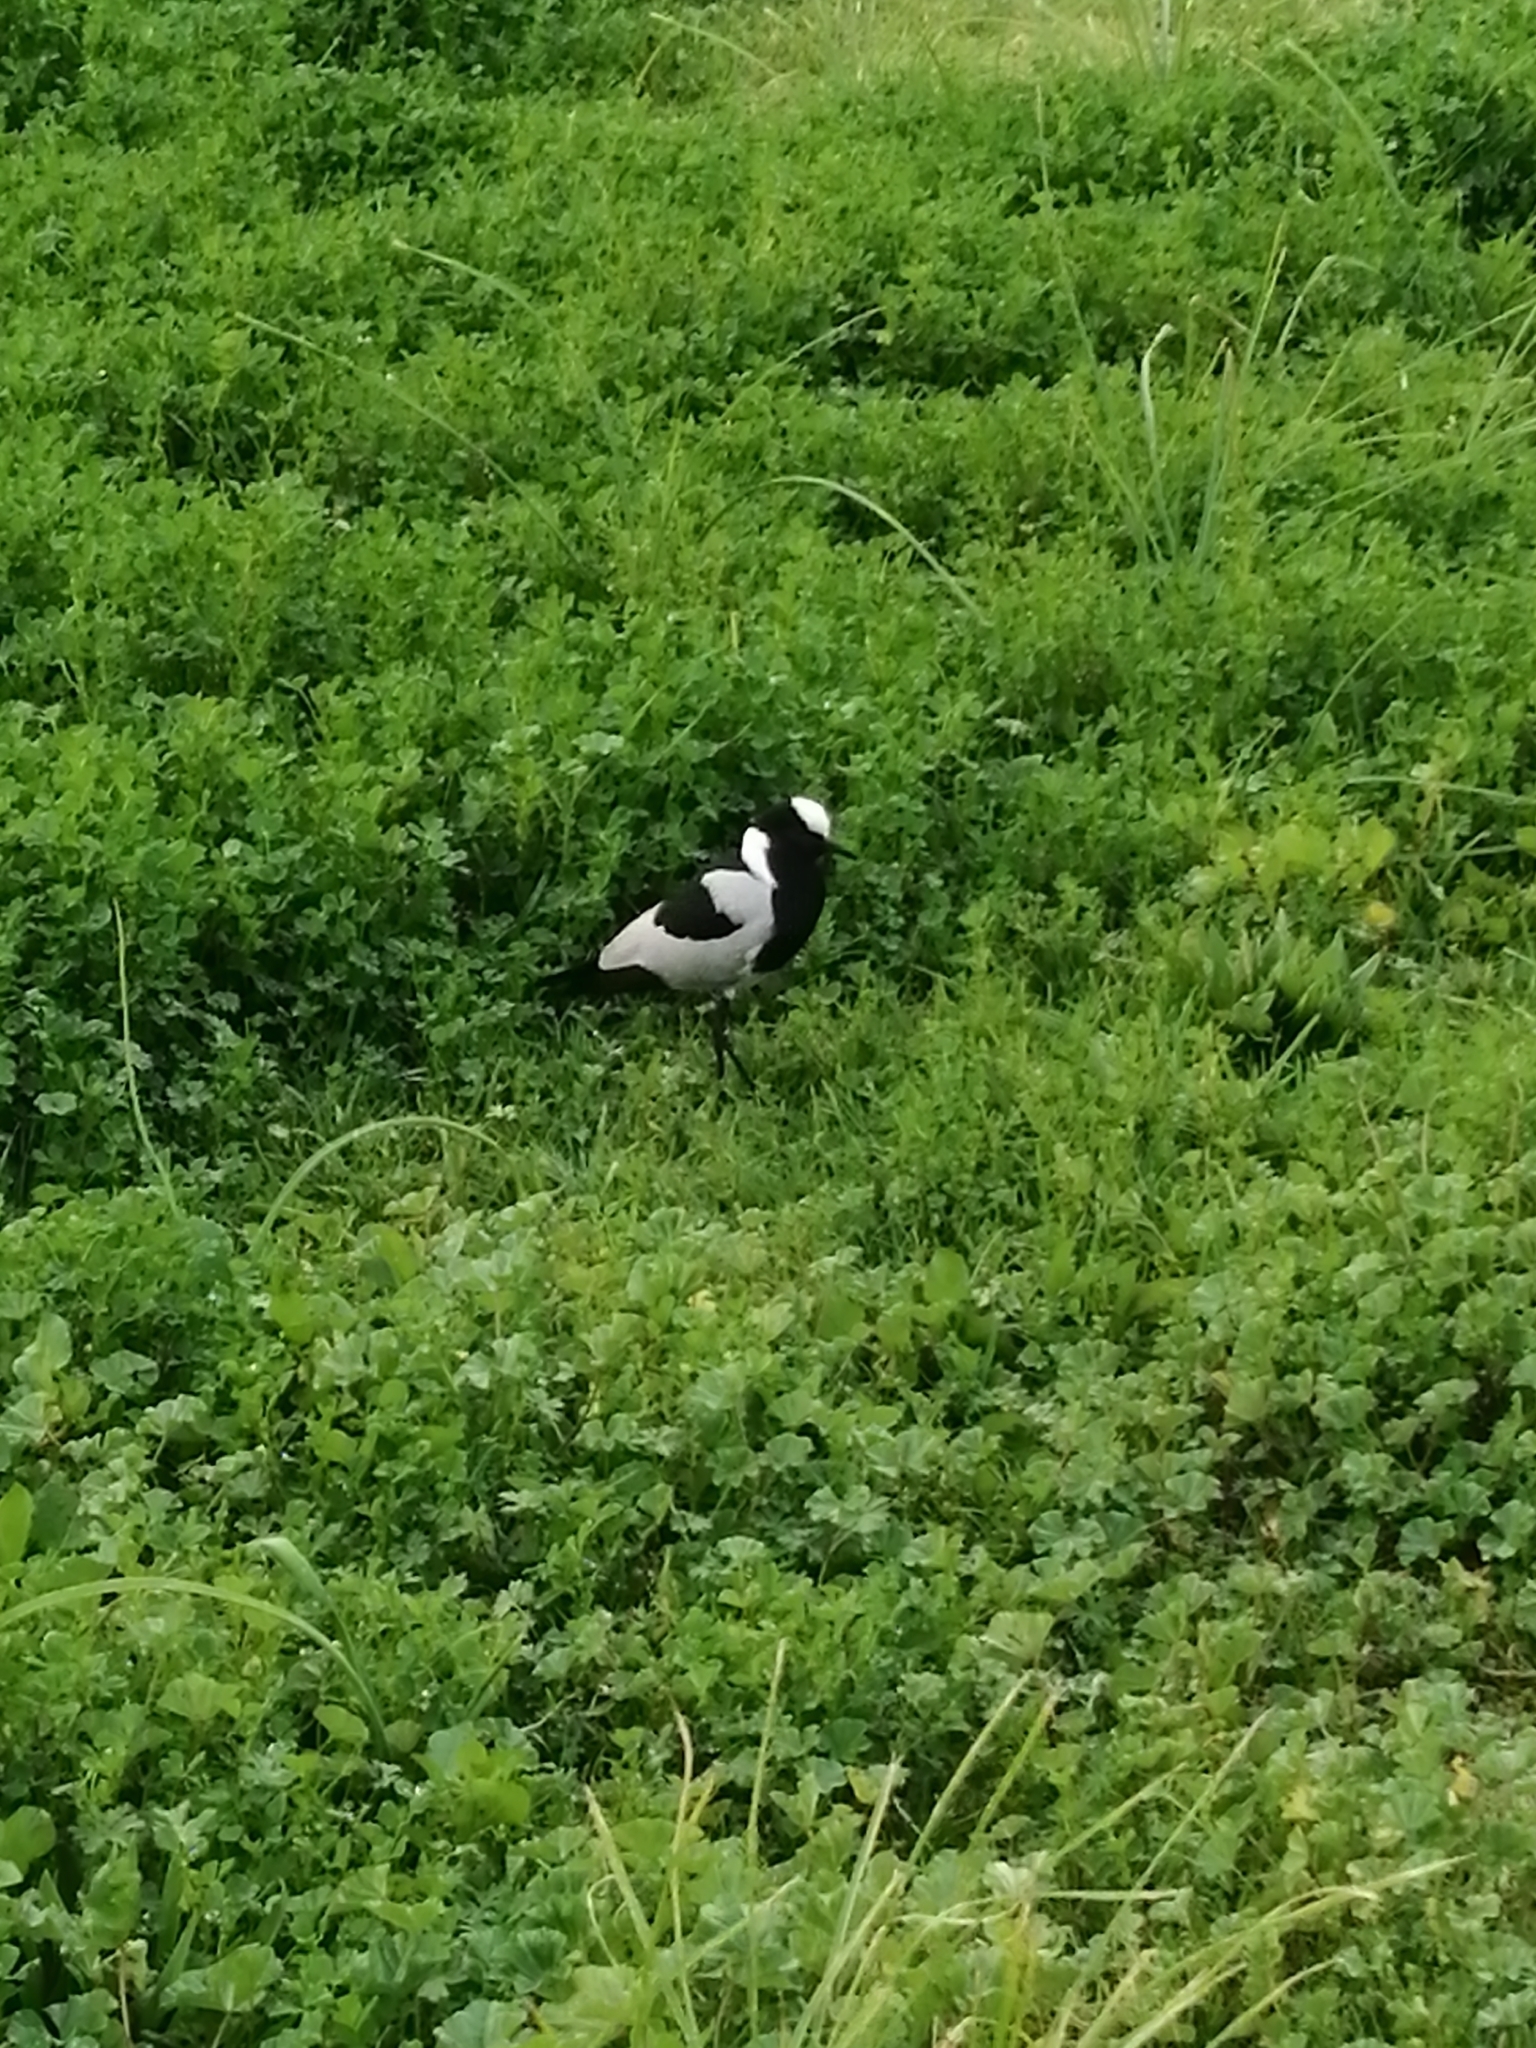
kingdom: Animalia
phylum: Chordata
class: Aves
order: Charadriiformes
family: Charadriidae
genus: Vanellus
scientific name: Vanellus armatus
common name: Blacksmith lapwing
